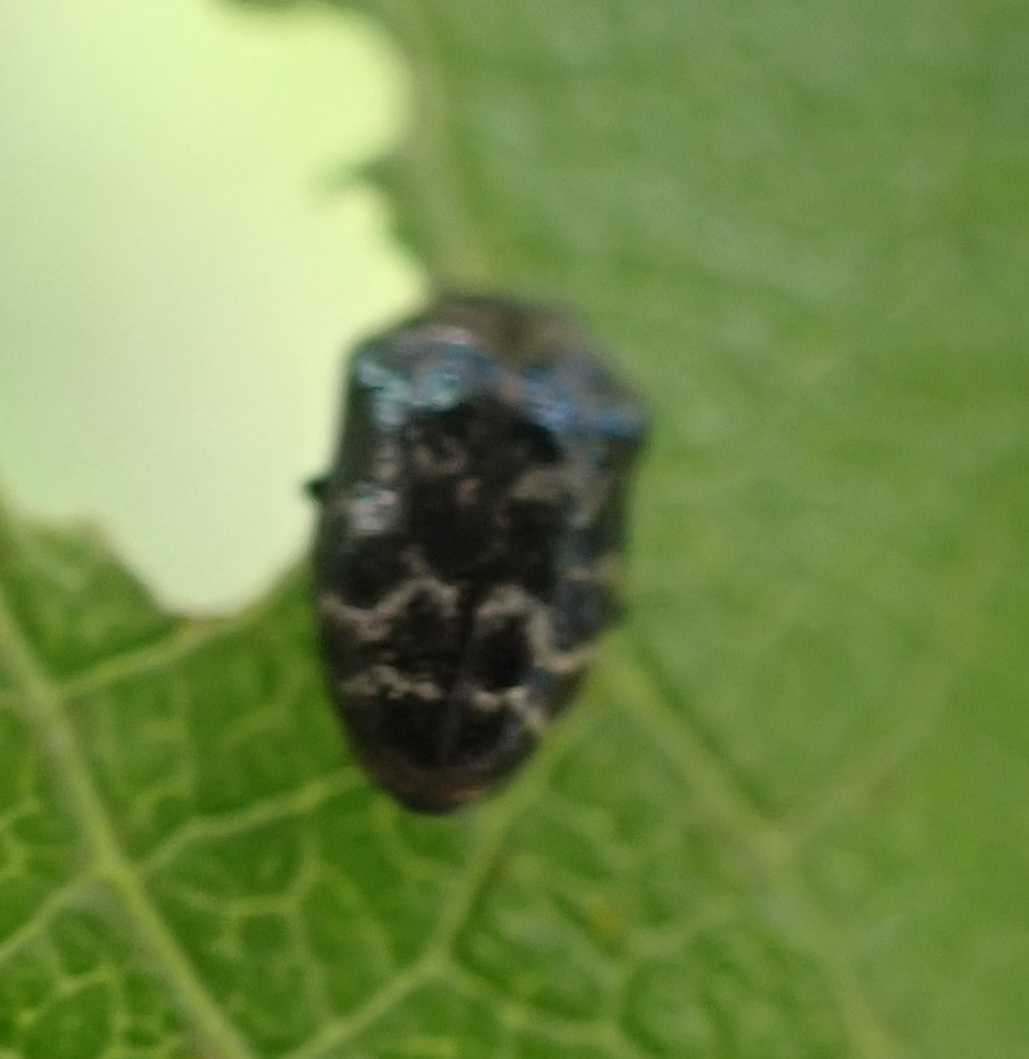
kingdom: Animalia
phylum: Arthropoda
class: Insecta
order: Coleoptera
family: Buprestidae
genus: Trachys
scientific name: Trachys minutus
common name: Metallic wood-boring beetle
